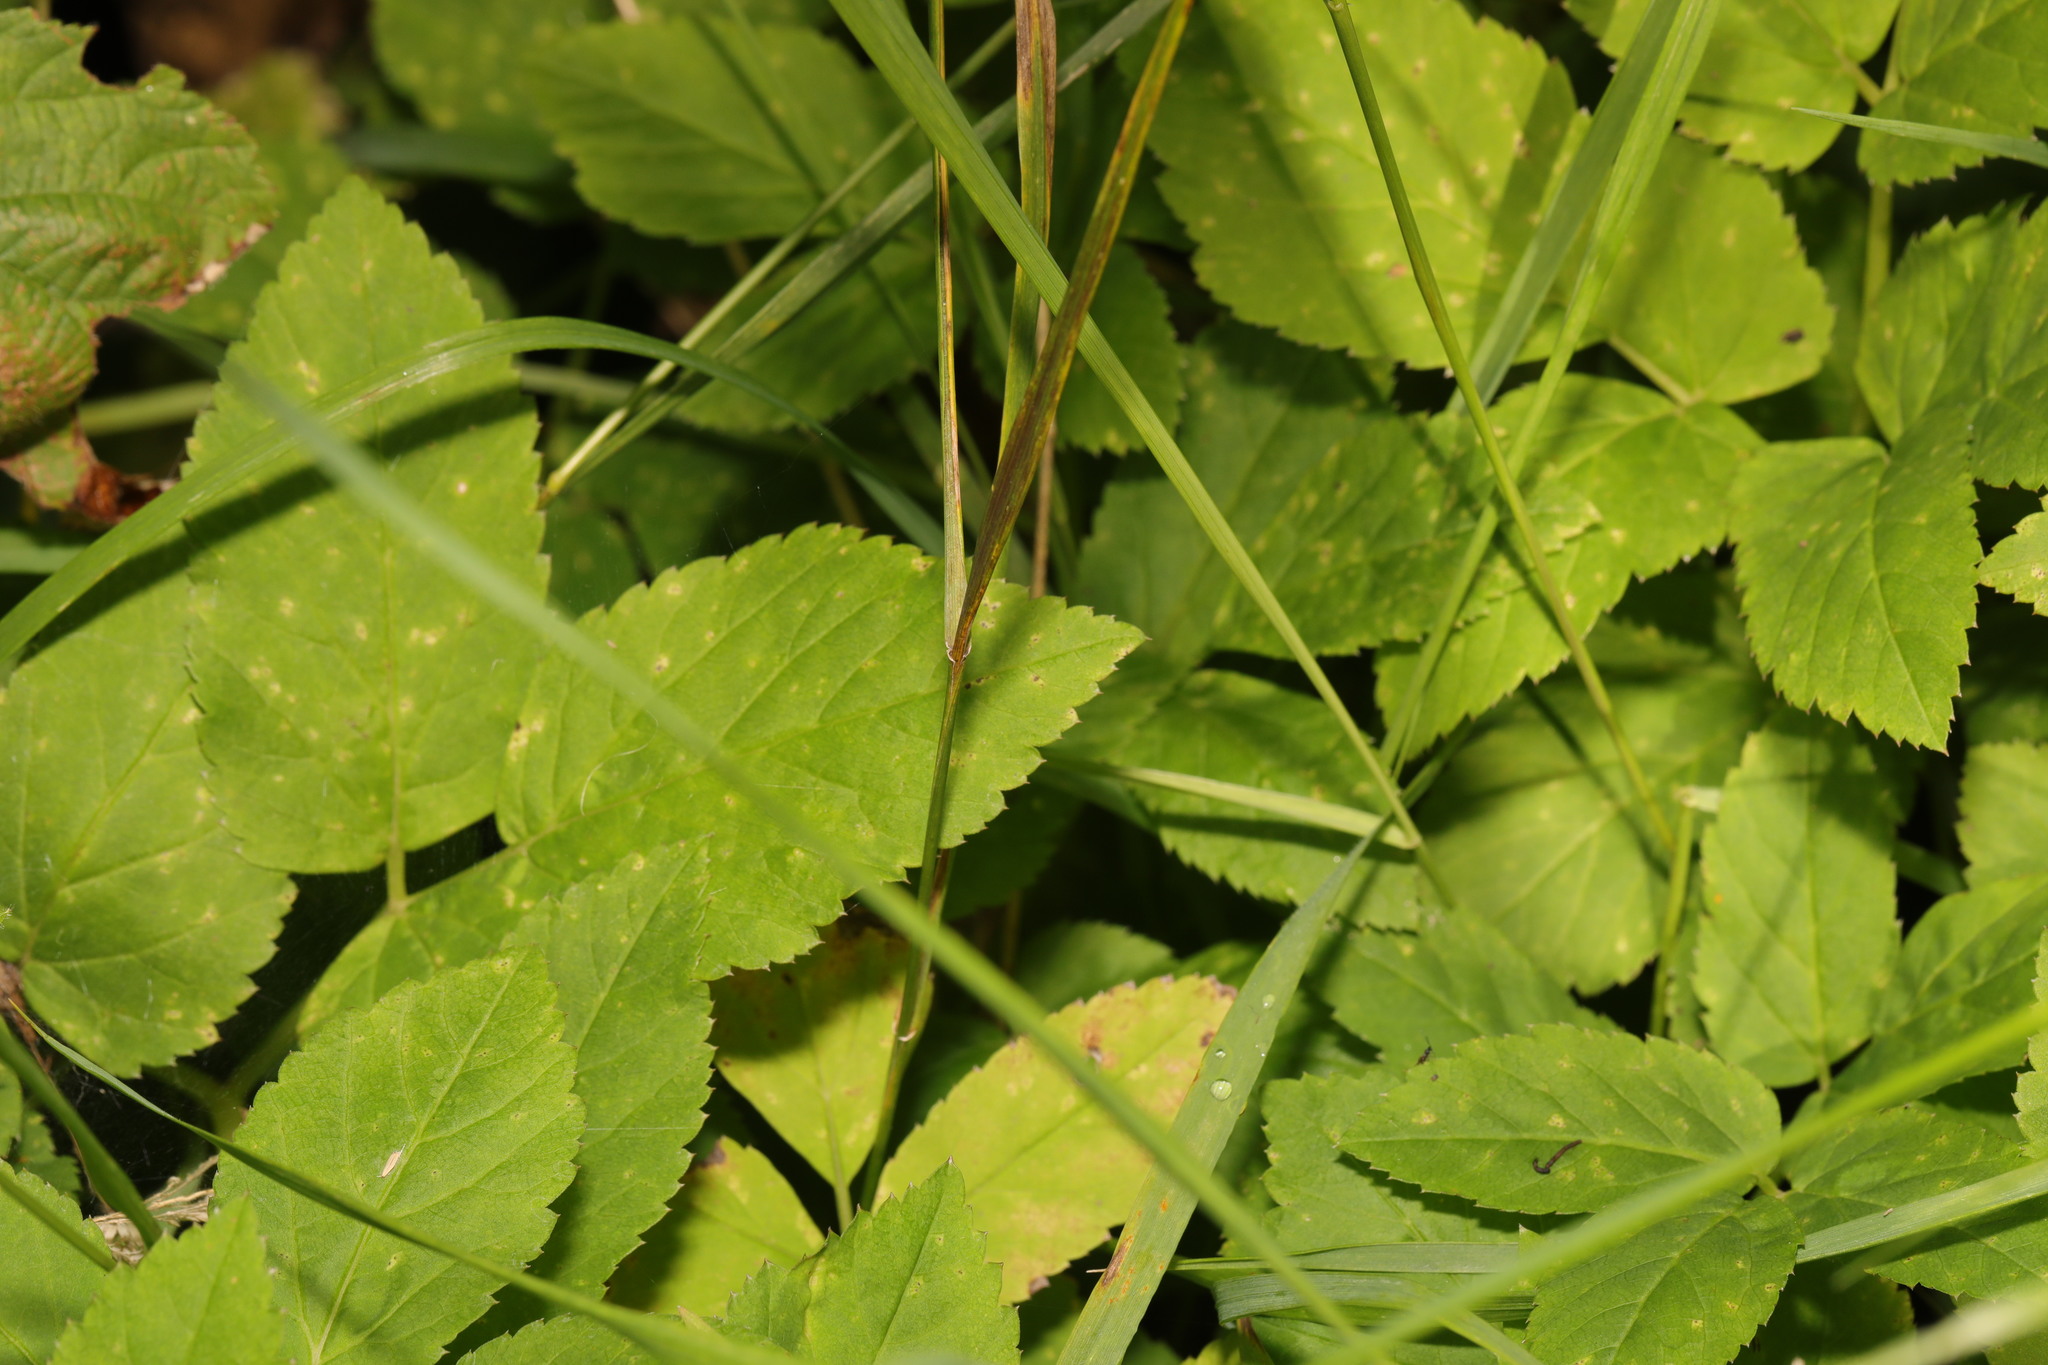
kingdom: Plantae
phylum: Tracheophyta
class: Magnoliopsida
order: Apiales
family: Apiaceae
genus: Aegopodium
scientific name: Aegopodium podagraria
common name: Ground-elder
